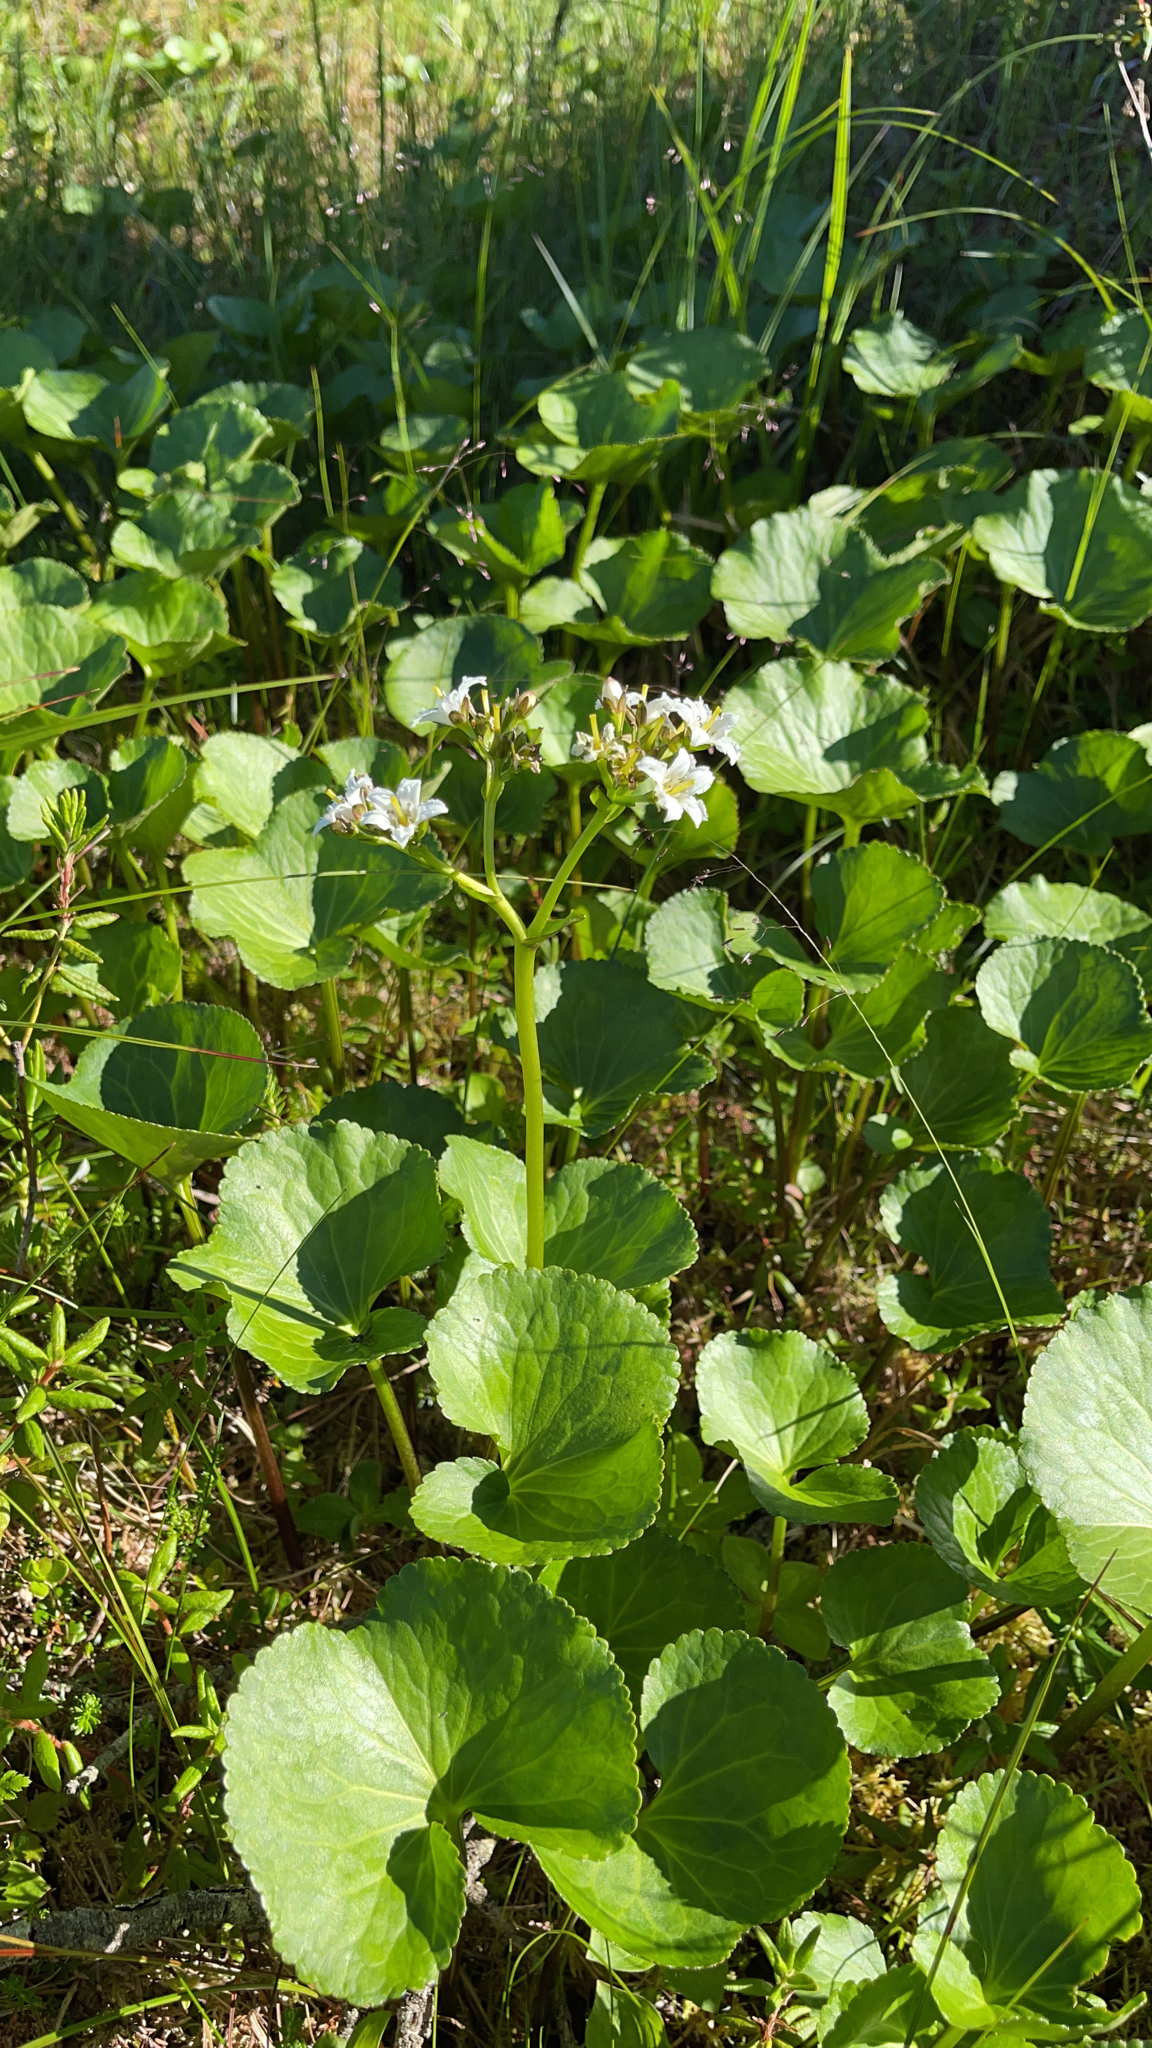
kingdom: Plantae
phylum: Tracheophyta
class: Magnoliopsida
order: Asterales
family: Menyanthaceae
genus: Nephrophyllidium
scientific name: Nephrophyllidium crista-galli
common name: Deer-cabbage
